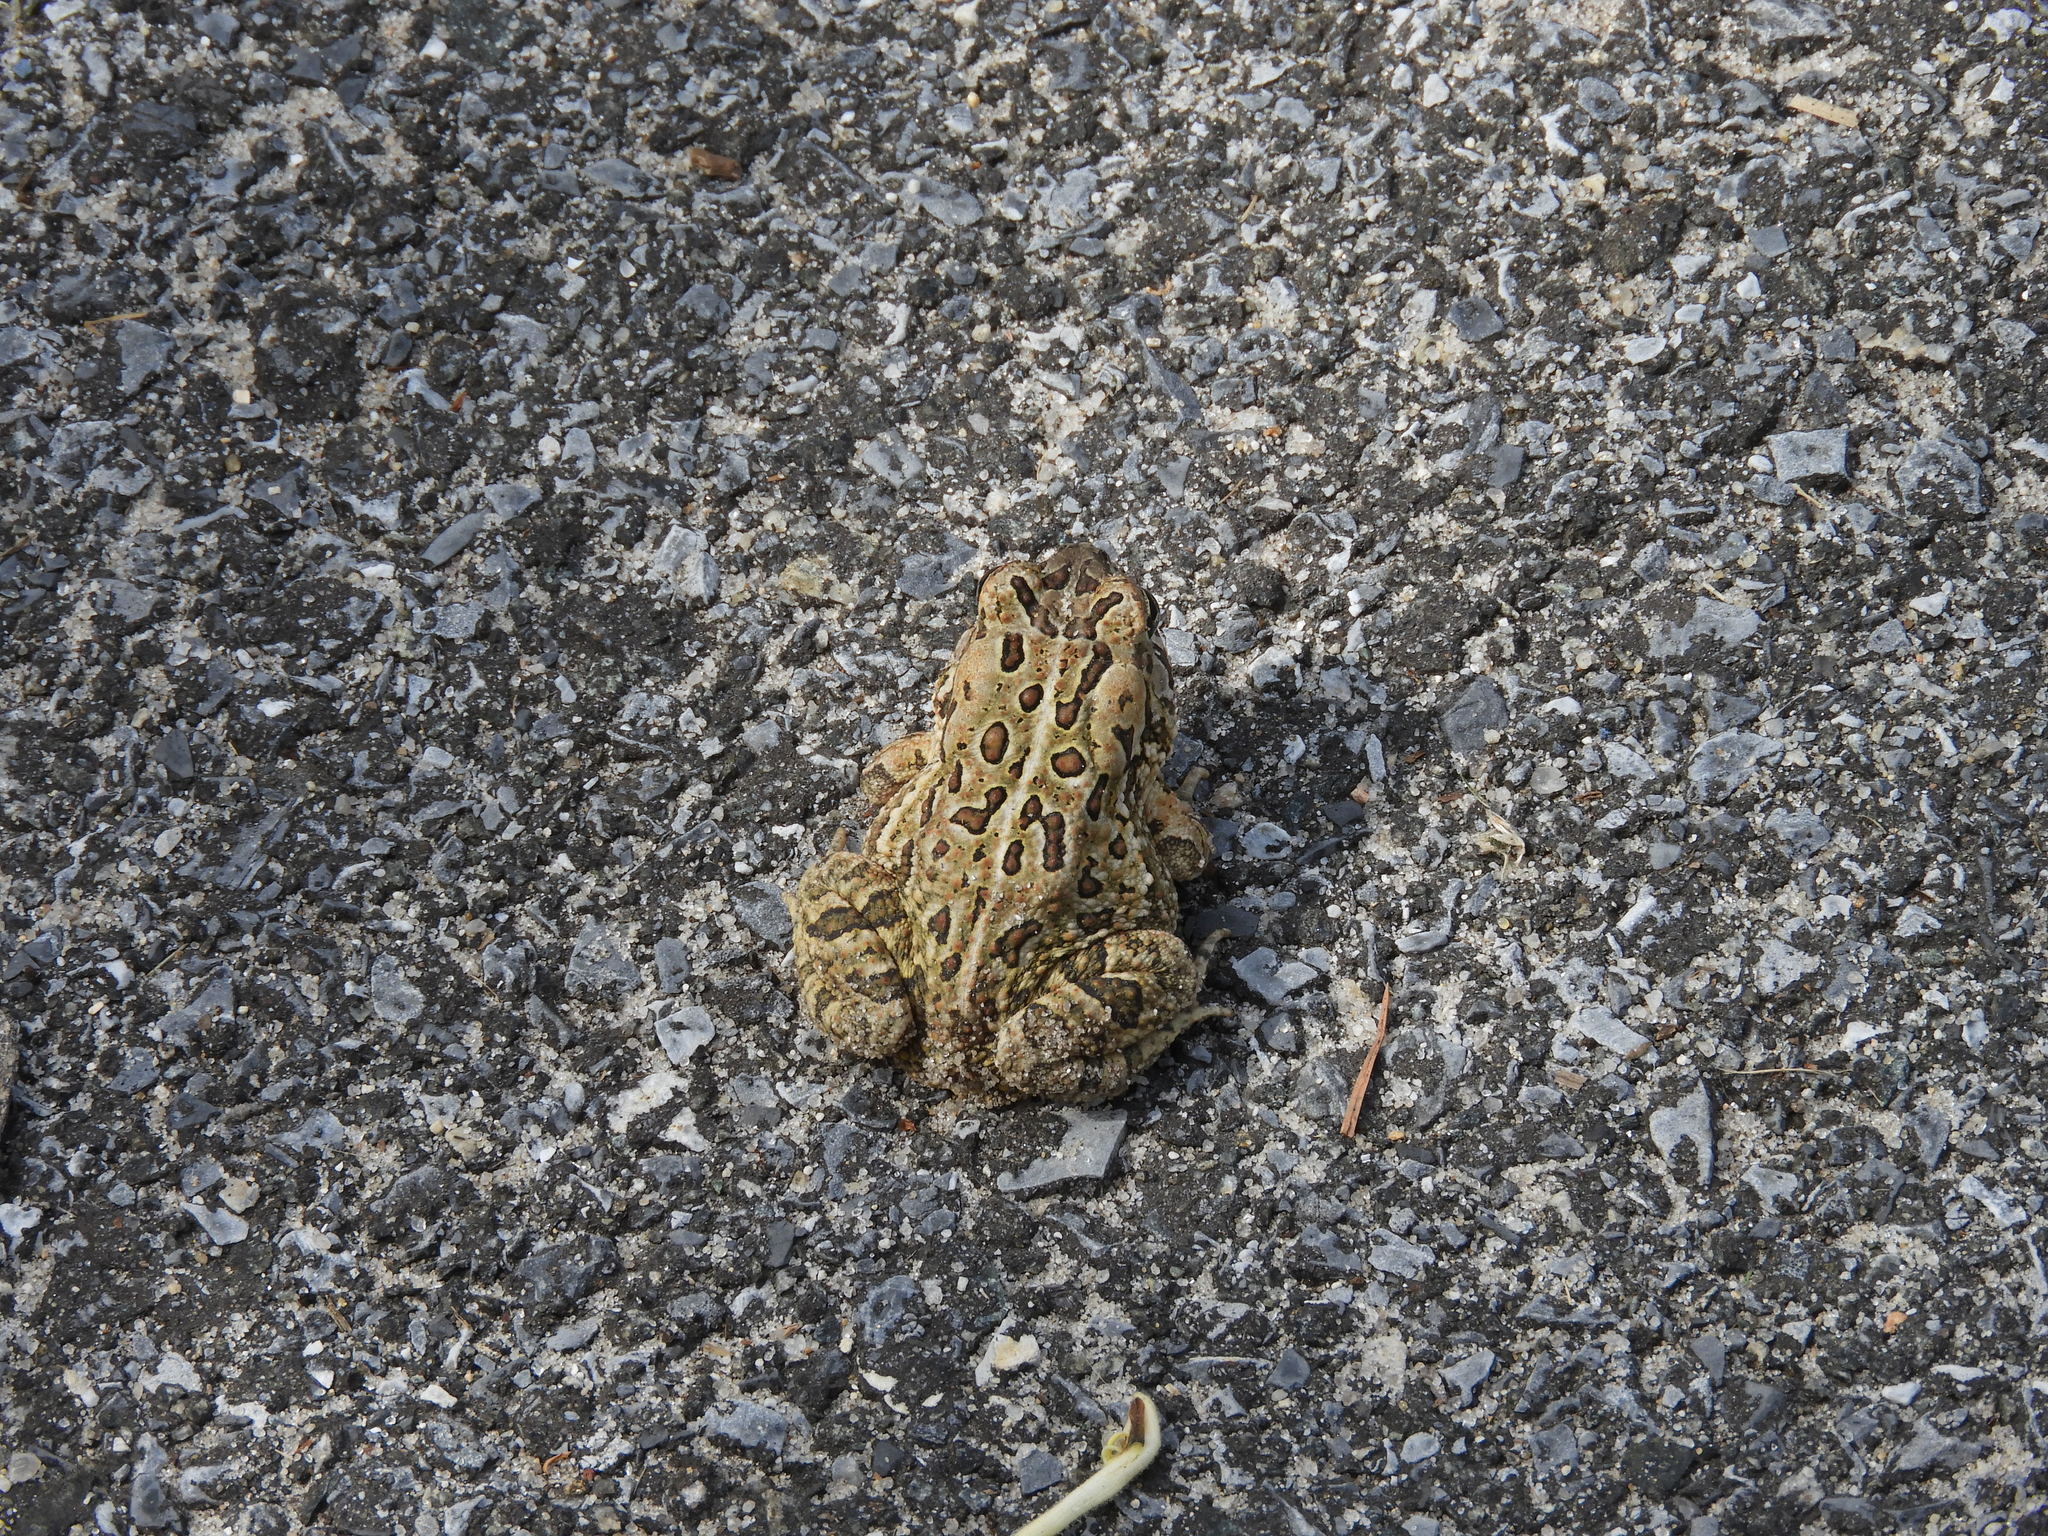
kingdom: Animalia
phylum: Chordata
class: Amphibia
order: Anura
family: Bufonidae
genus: Anaxyrus
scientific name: Anaxyrus fowleri
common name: Fowler's toad
